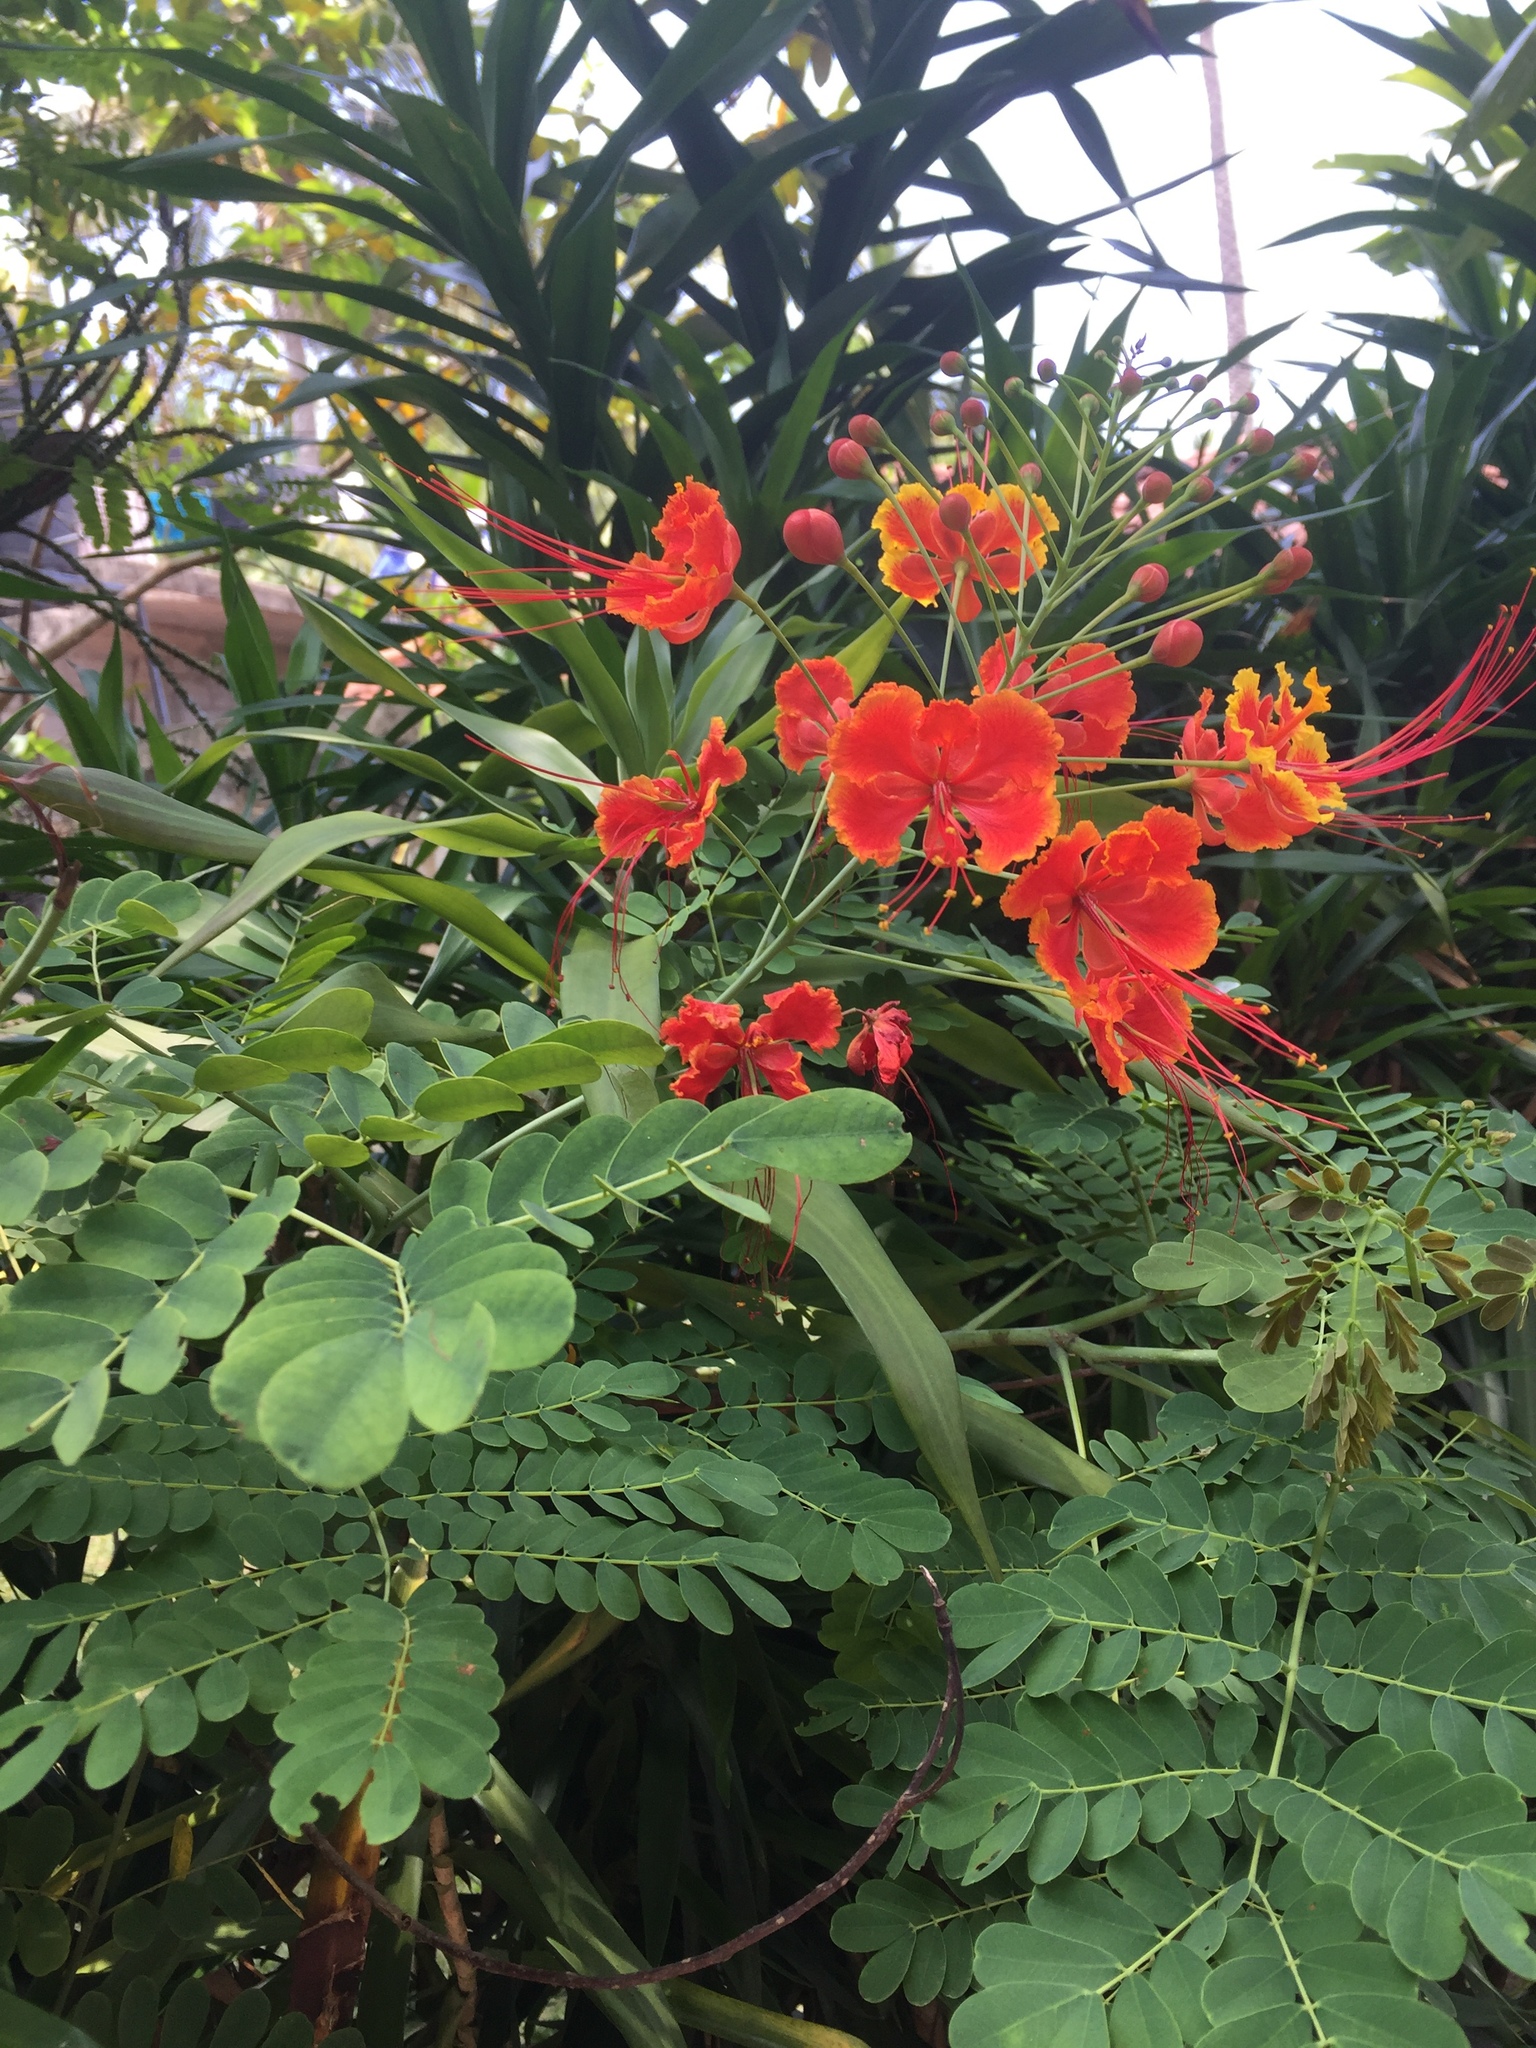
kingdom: Plantae
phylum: Tracheophyta
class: Magnoliopsida
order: Fabales
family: Fabaceae
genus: Caesalpinia
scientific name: Caesalpinia pulcherrima
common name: Pride-of-barbados
